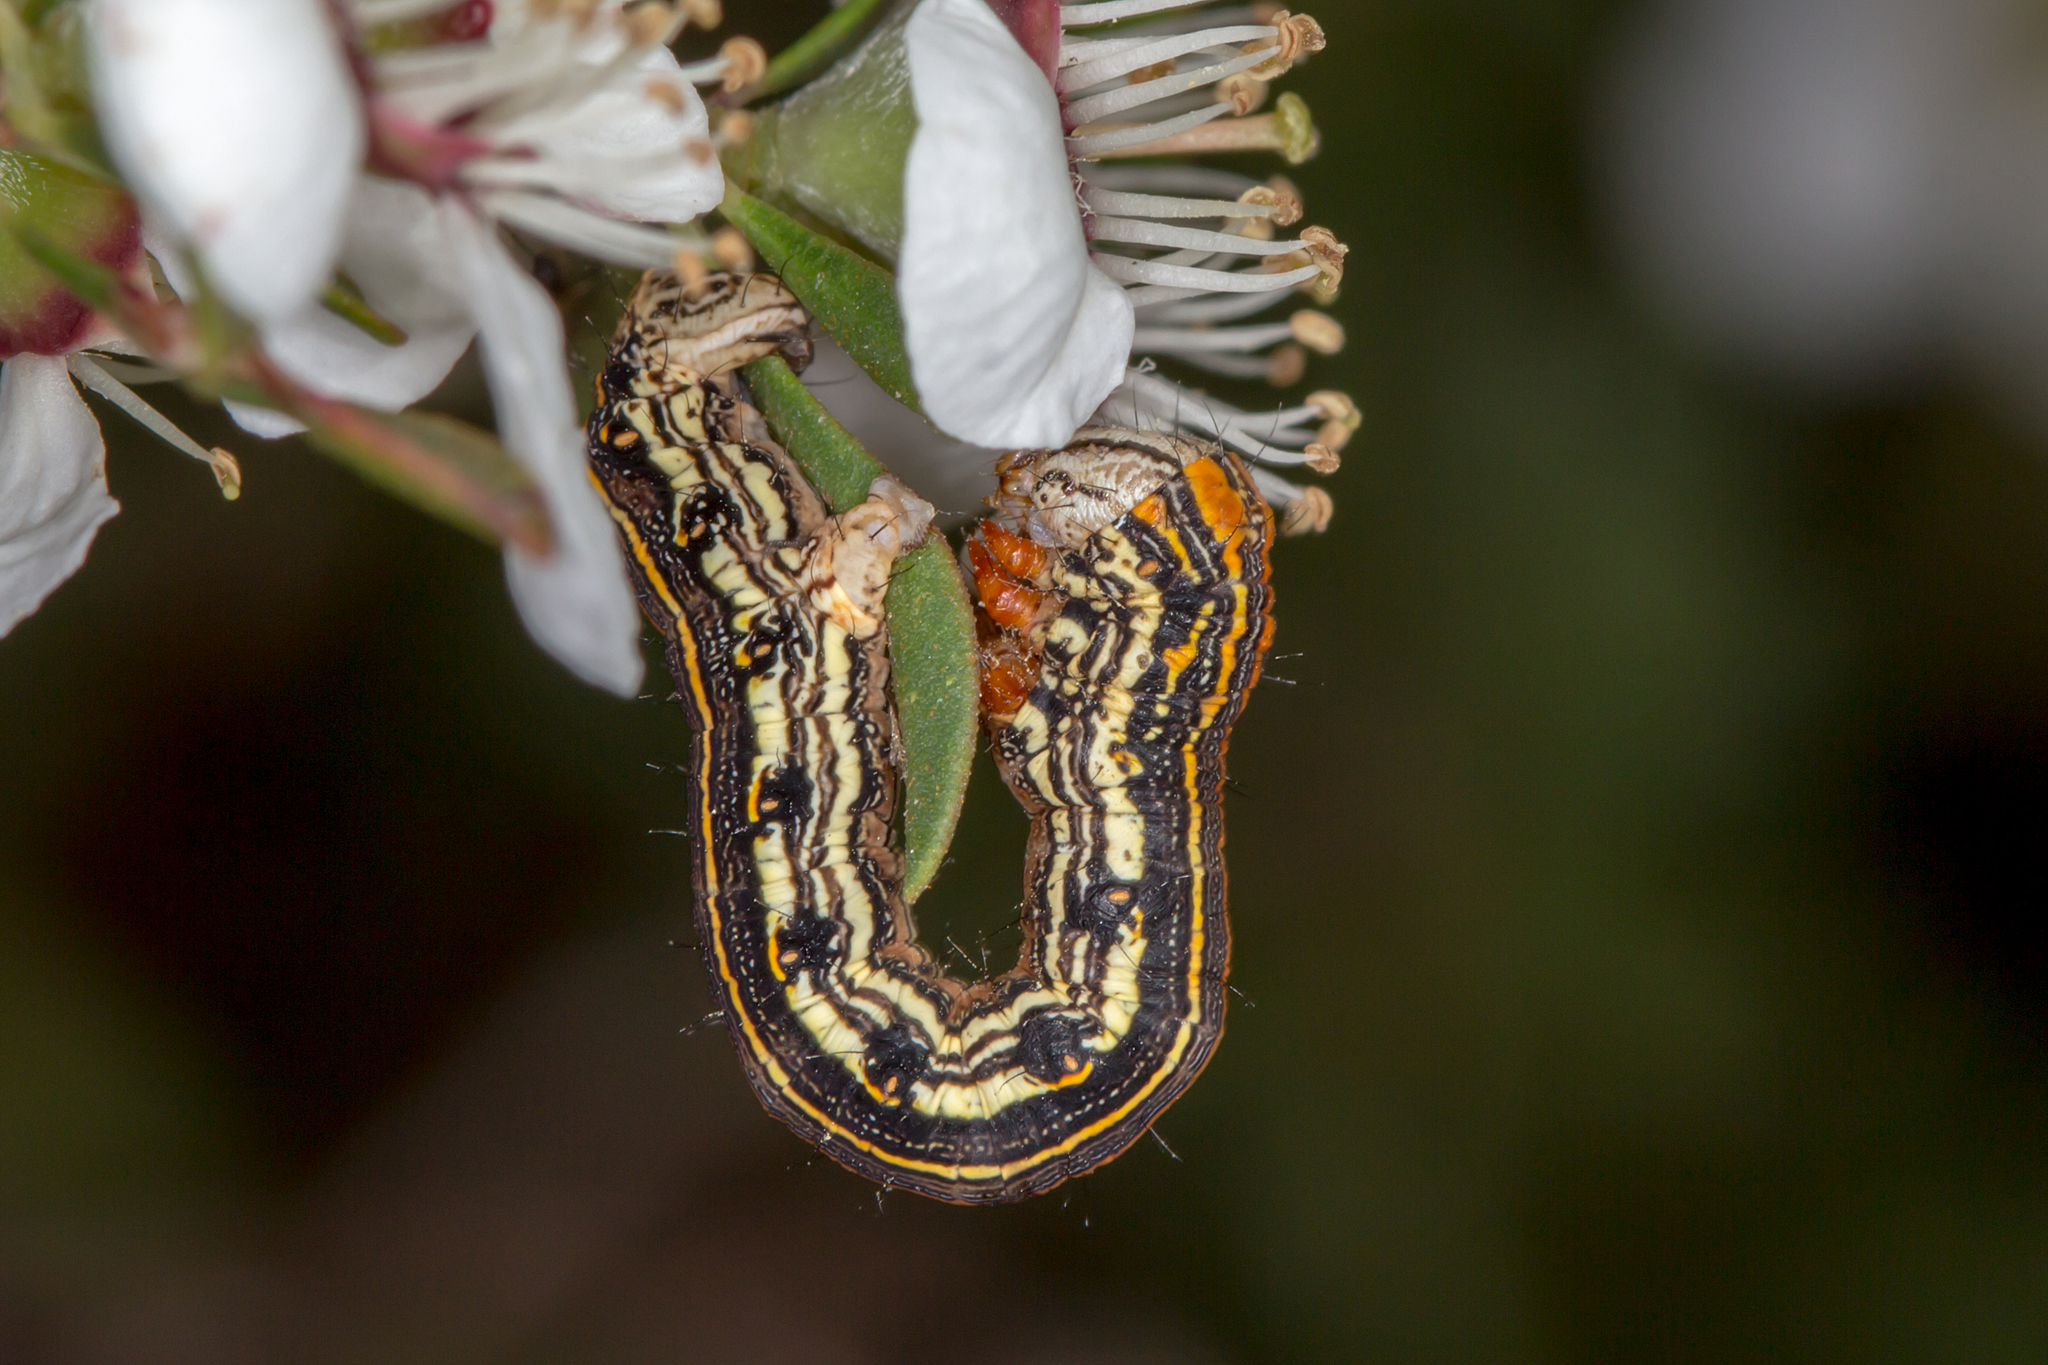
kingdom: Animalia
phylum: Arthropoda
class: Insecta
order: Lepidoptera
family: Geometridae
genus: Chlenias
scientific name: Chlenias zonaea
